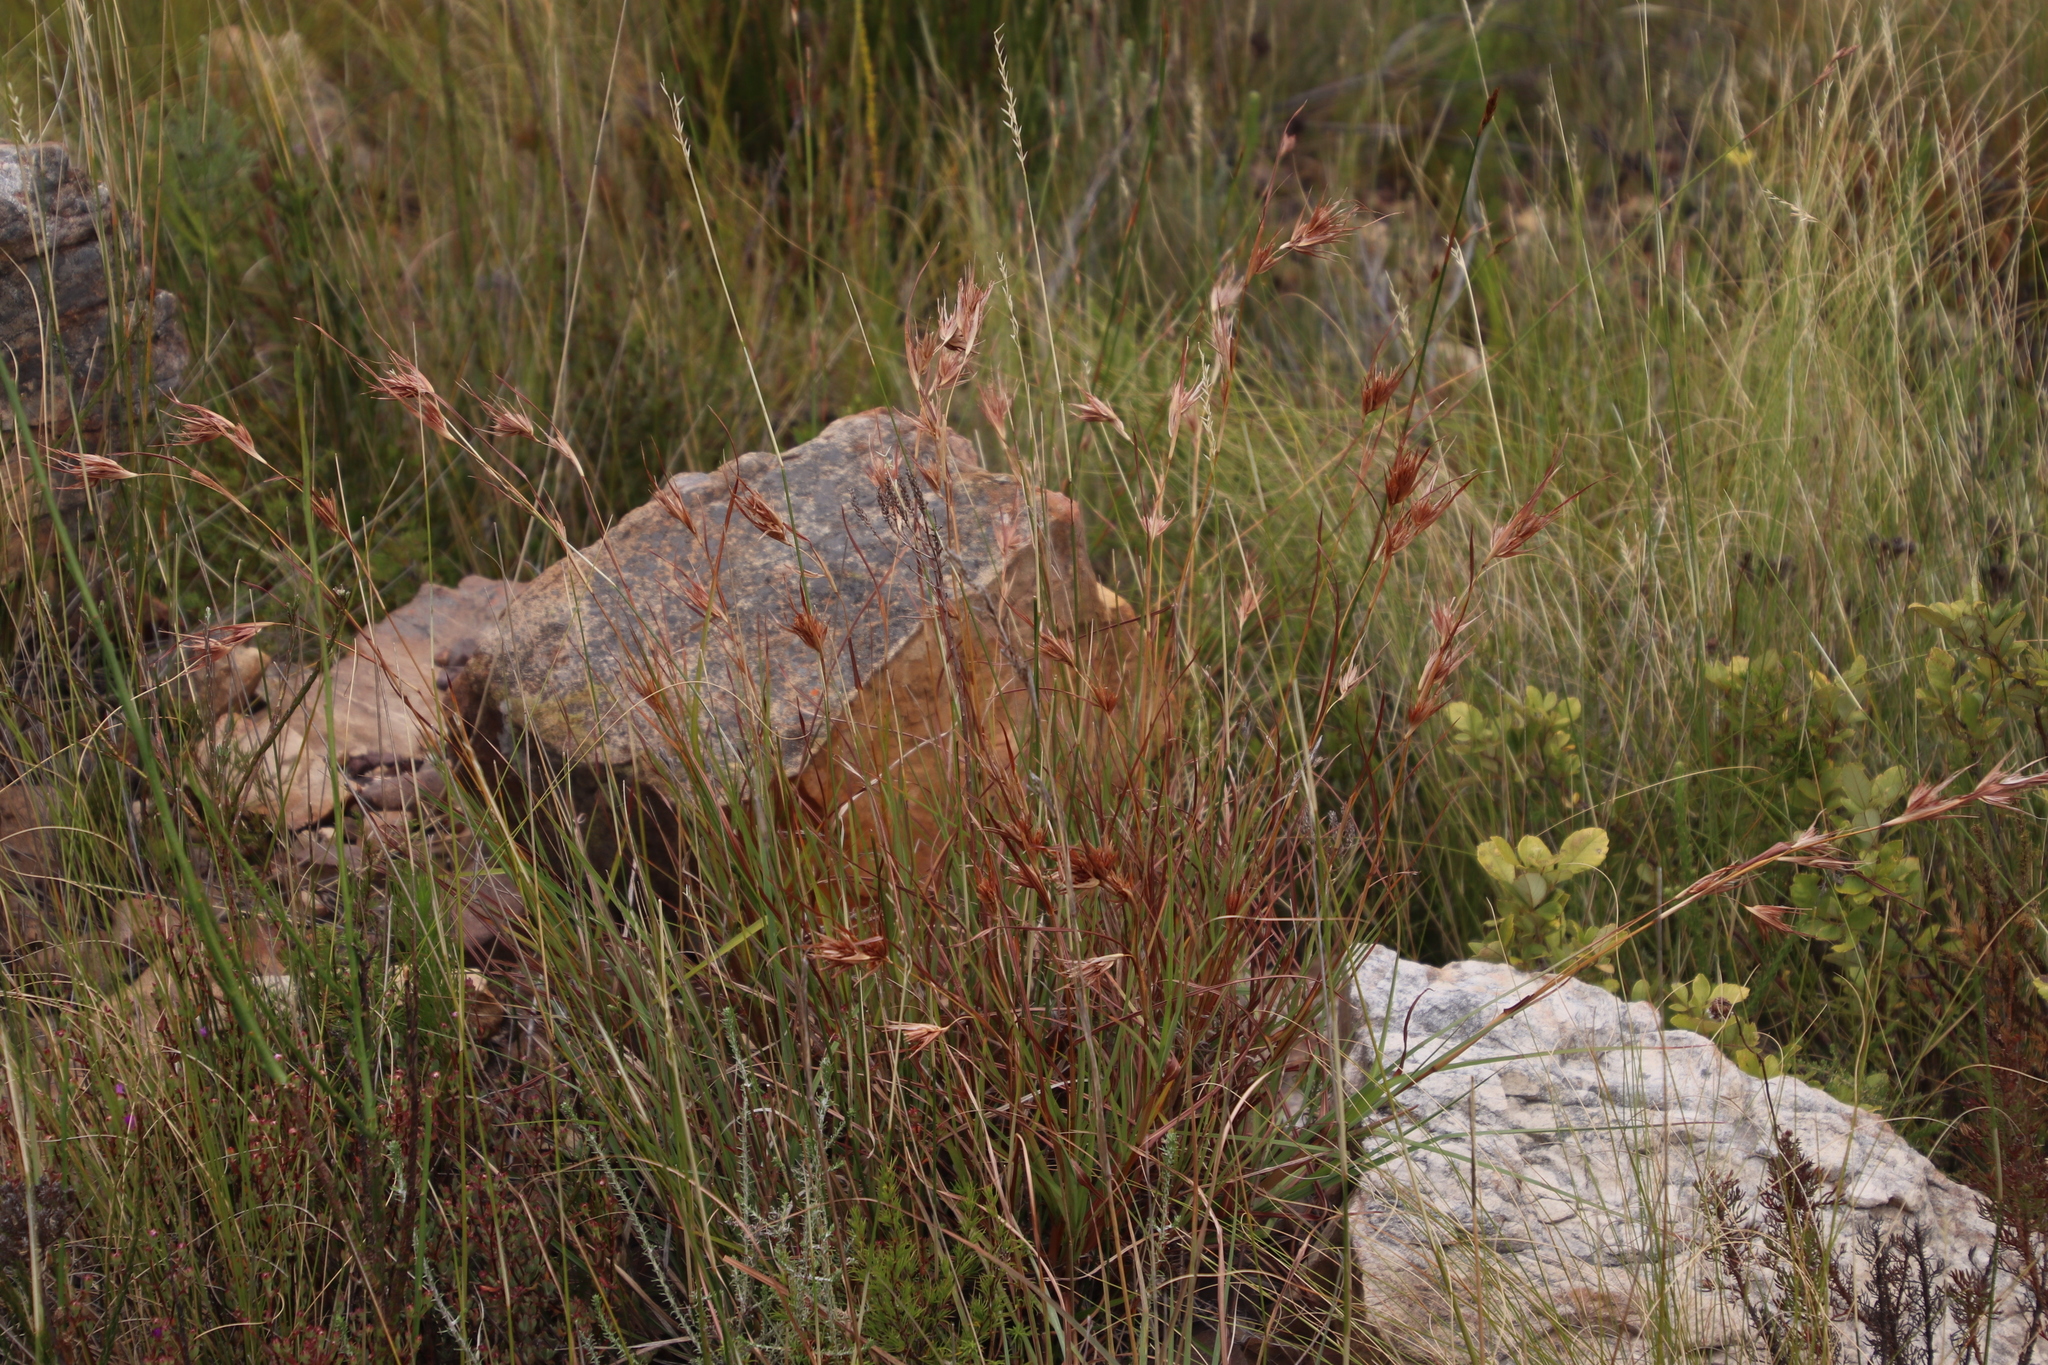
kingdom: Plantae
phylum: Tracheophyta
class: Liliopsida
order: Poales
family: Poaceae
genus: Themeda
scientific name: Themeda triandra
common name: Kangaroo grass
